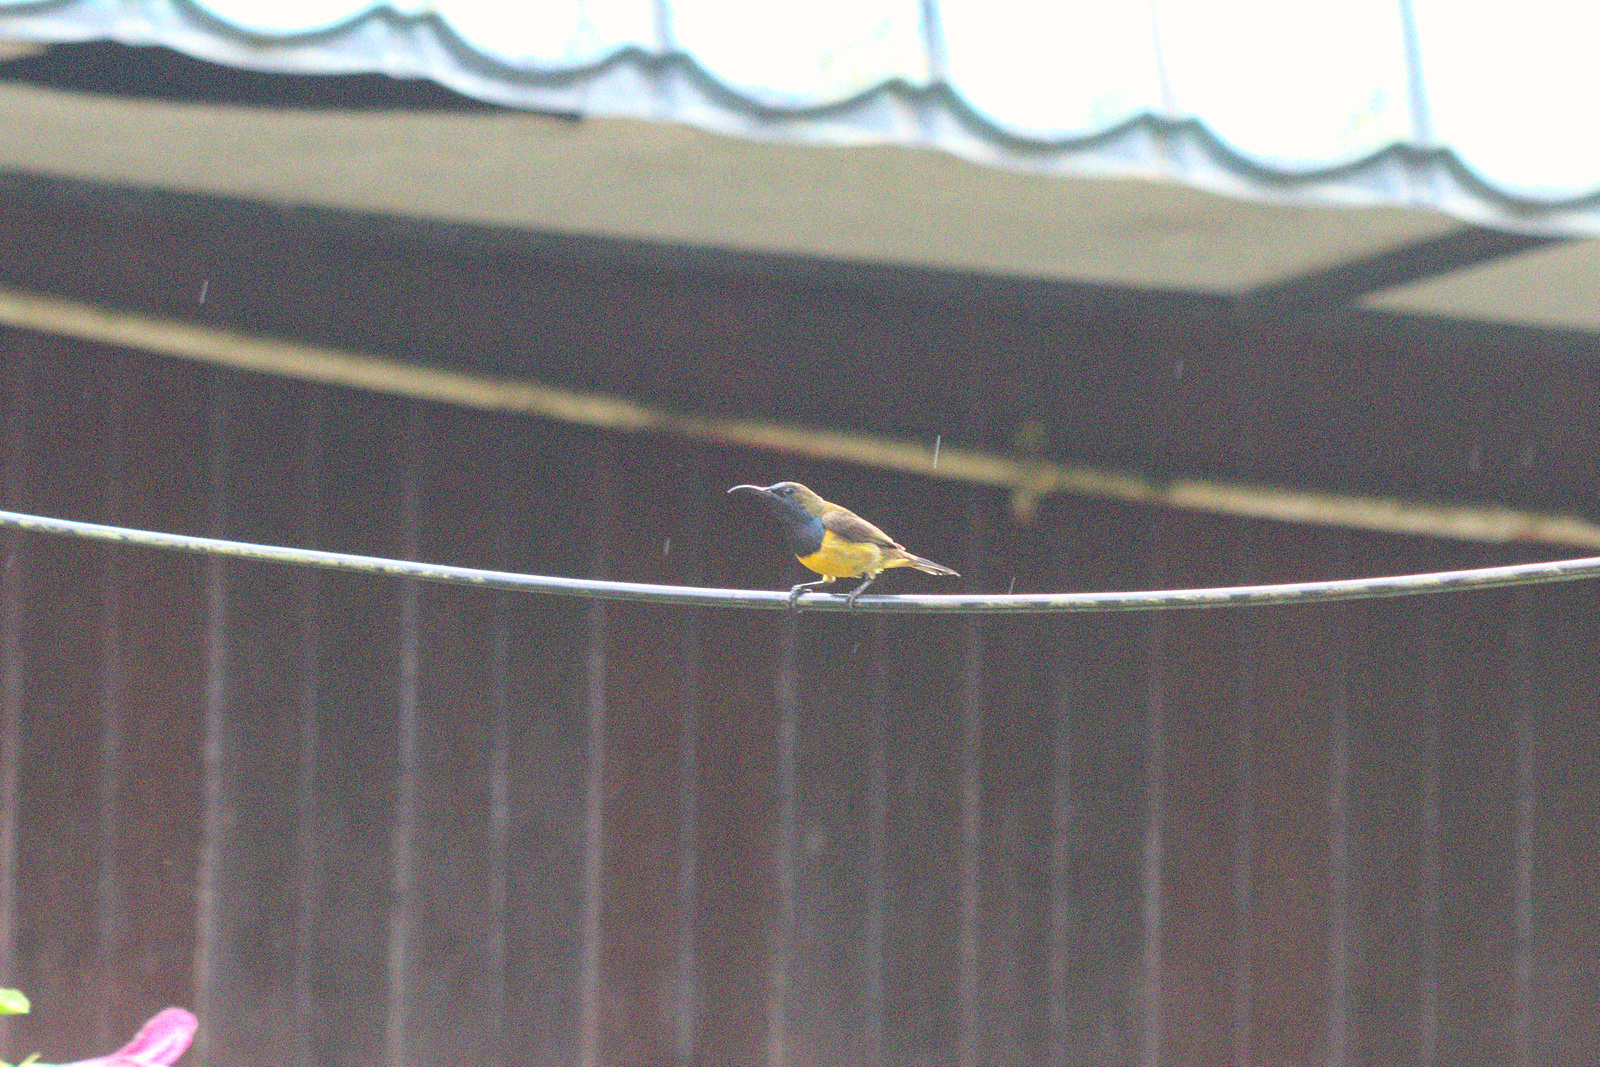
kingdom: Animalia
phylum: Chordata
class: Aves
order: Passeriformes
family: Nectariniidae
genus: Cinnyris
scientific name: Cinnyris
